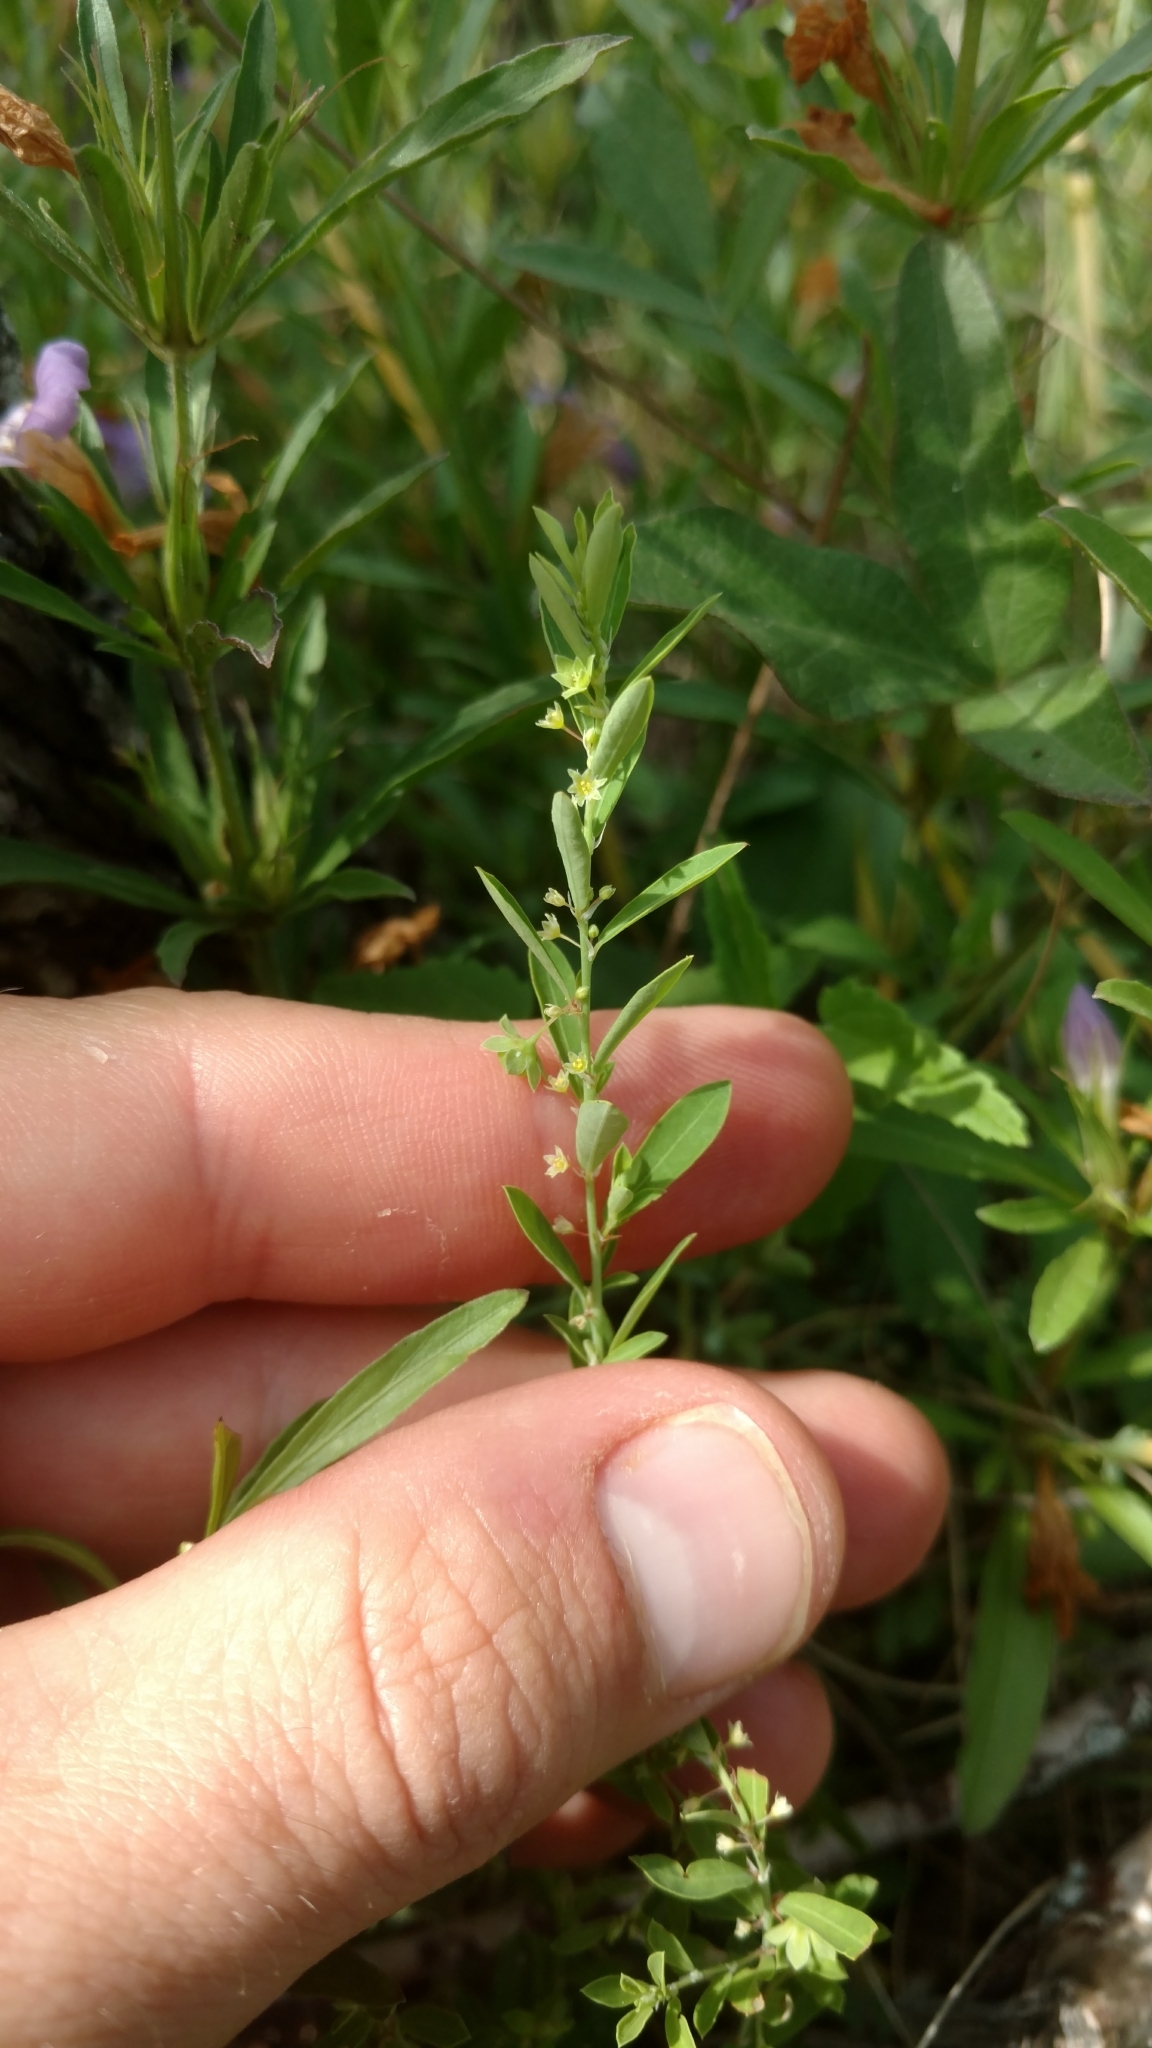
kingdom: Plantae
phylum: Tracheophyta
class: Magnoliopsida
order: Malpighiales
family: Phyllanthaceae
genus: Phyllanthus
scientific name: Phyllanthus polygonoides
